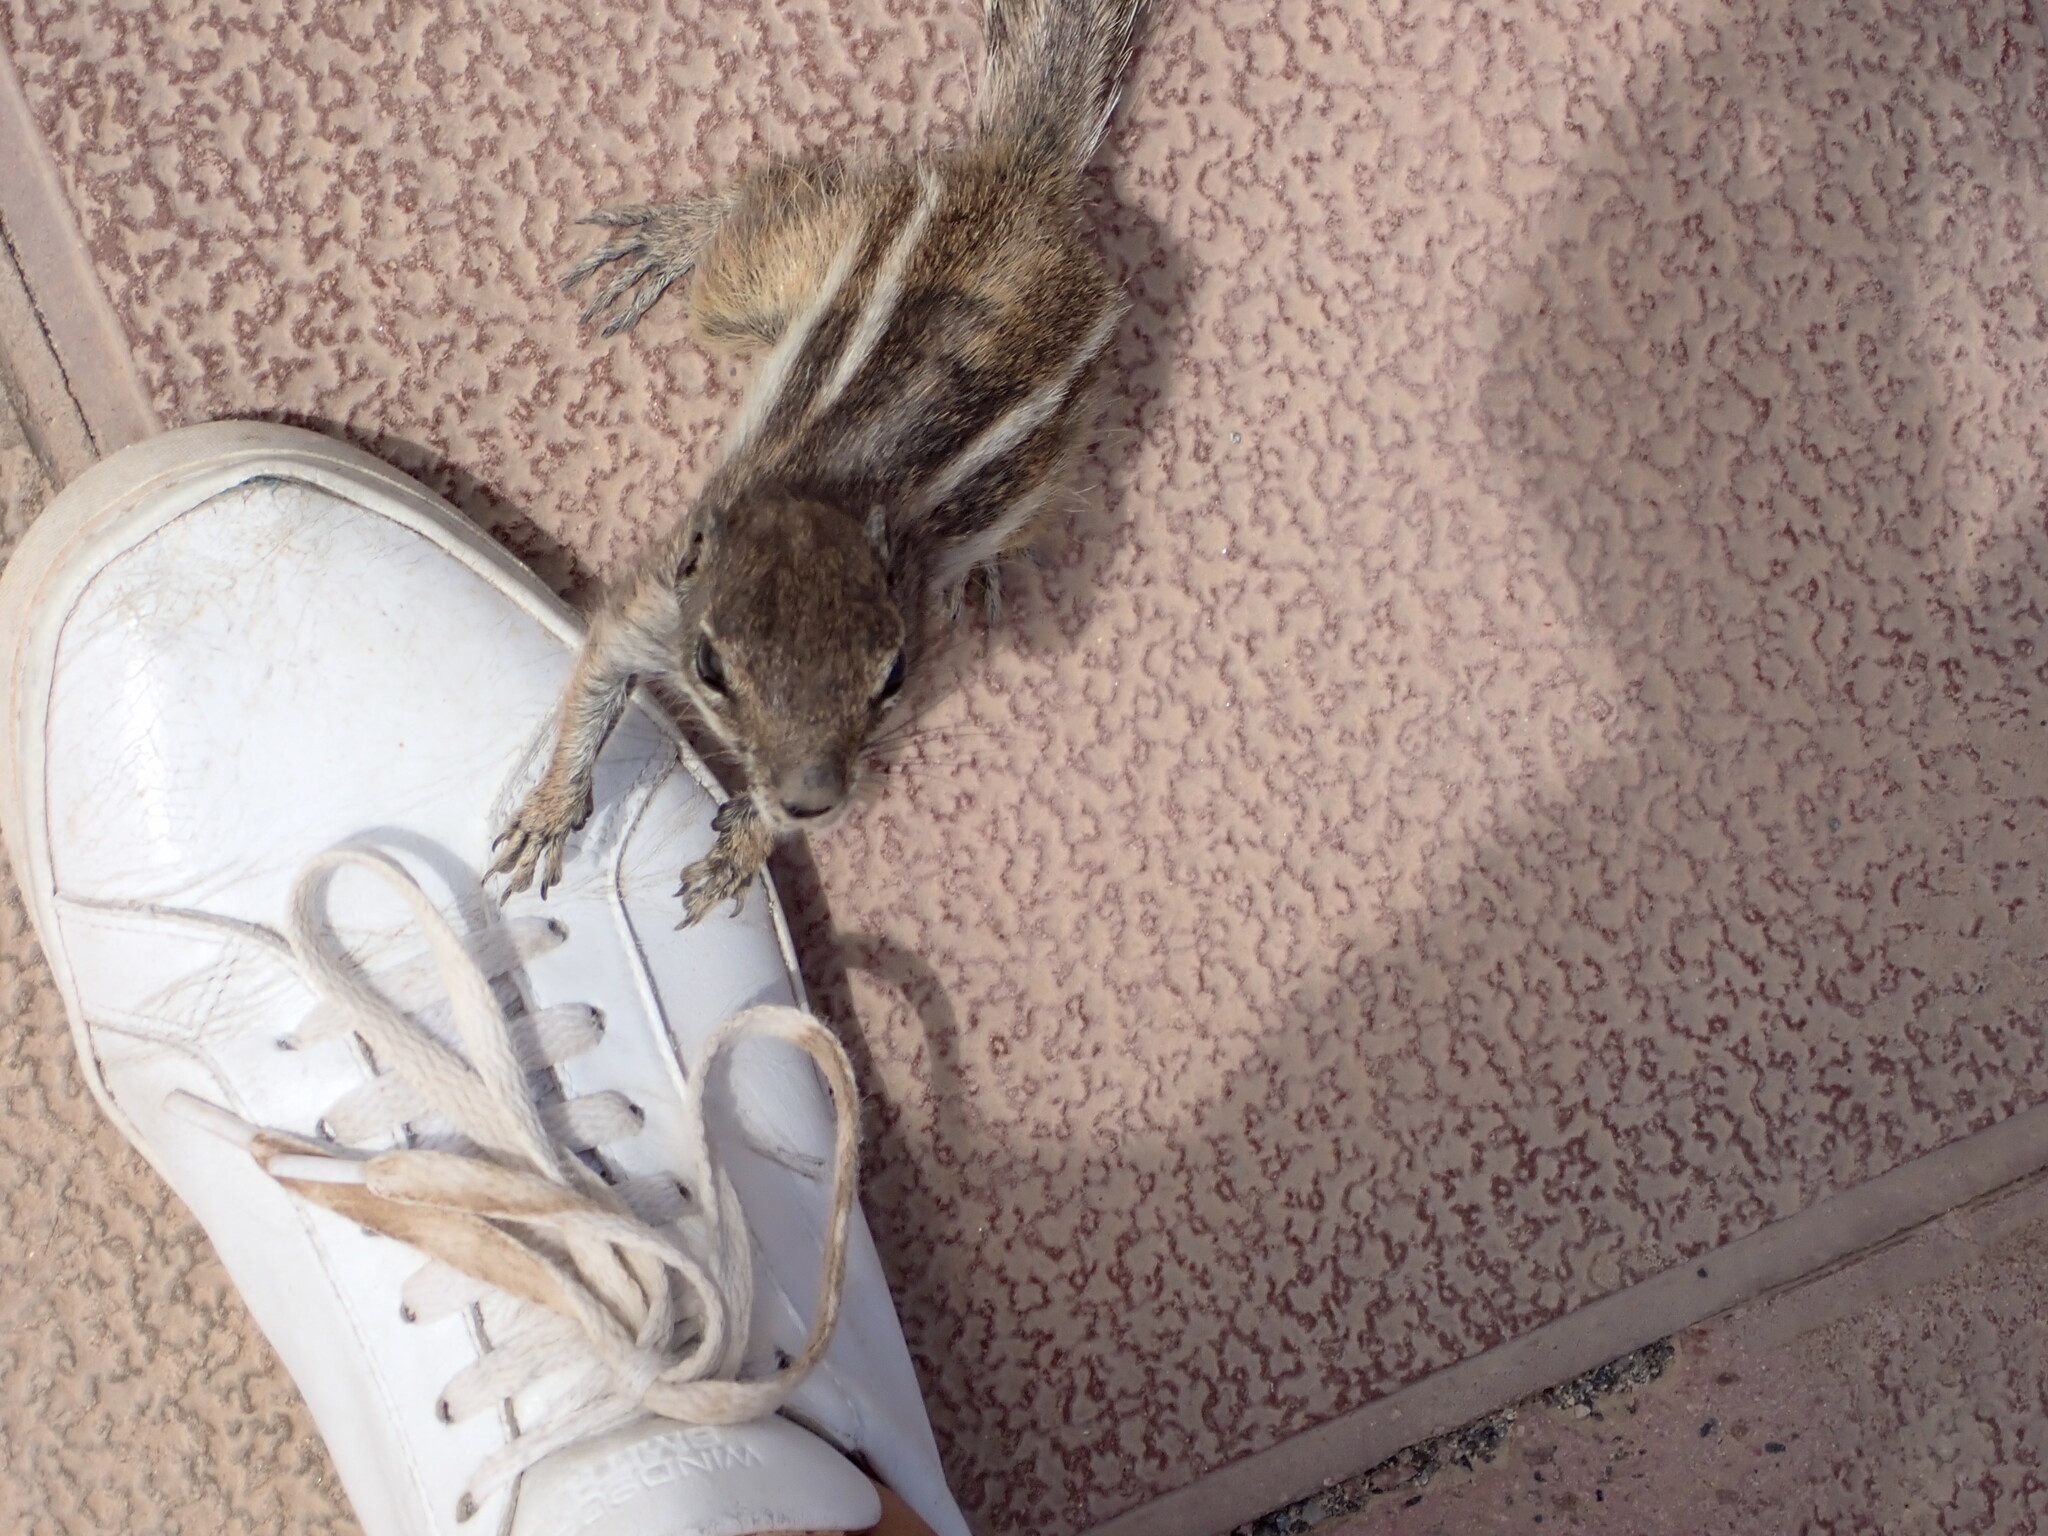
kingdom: Animalia
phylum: Chordata
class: Mammalia
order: Rodentia
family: Sciuridae
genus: Atlantoxerus
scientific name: Atlantoxerus getulus
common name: Barbary ground squirrel
